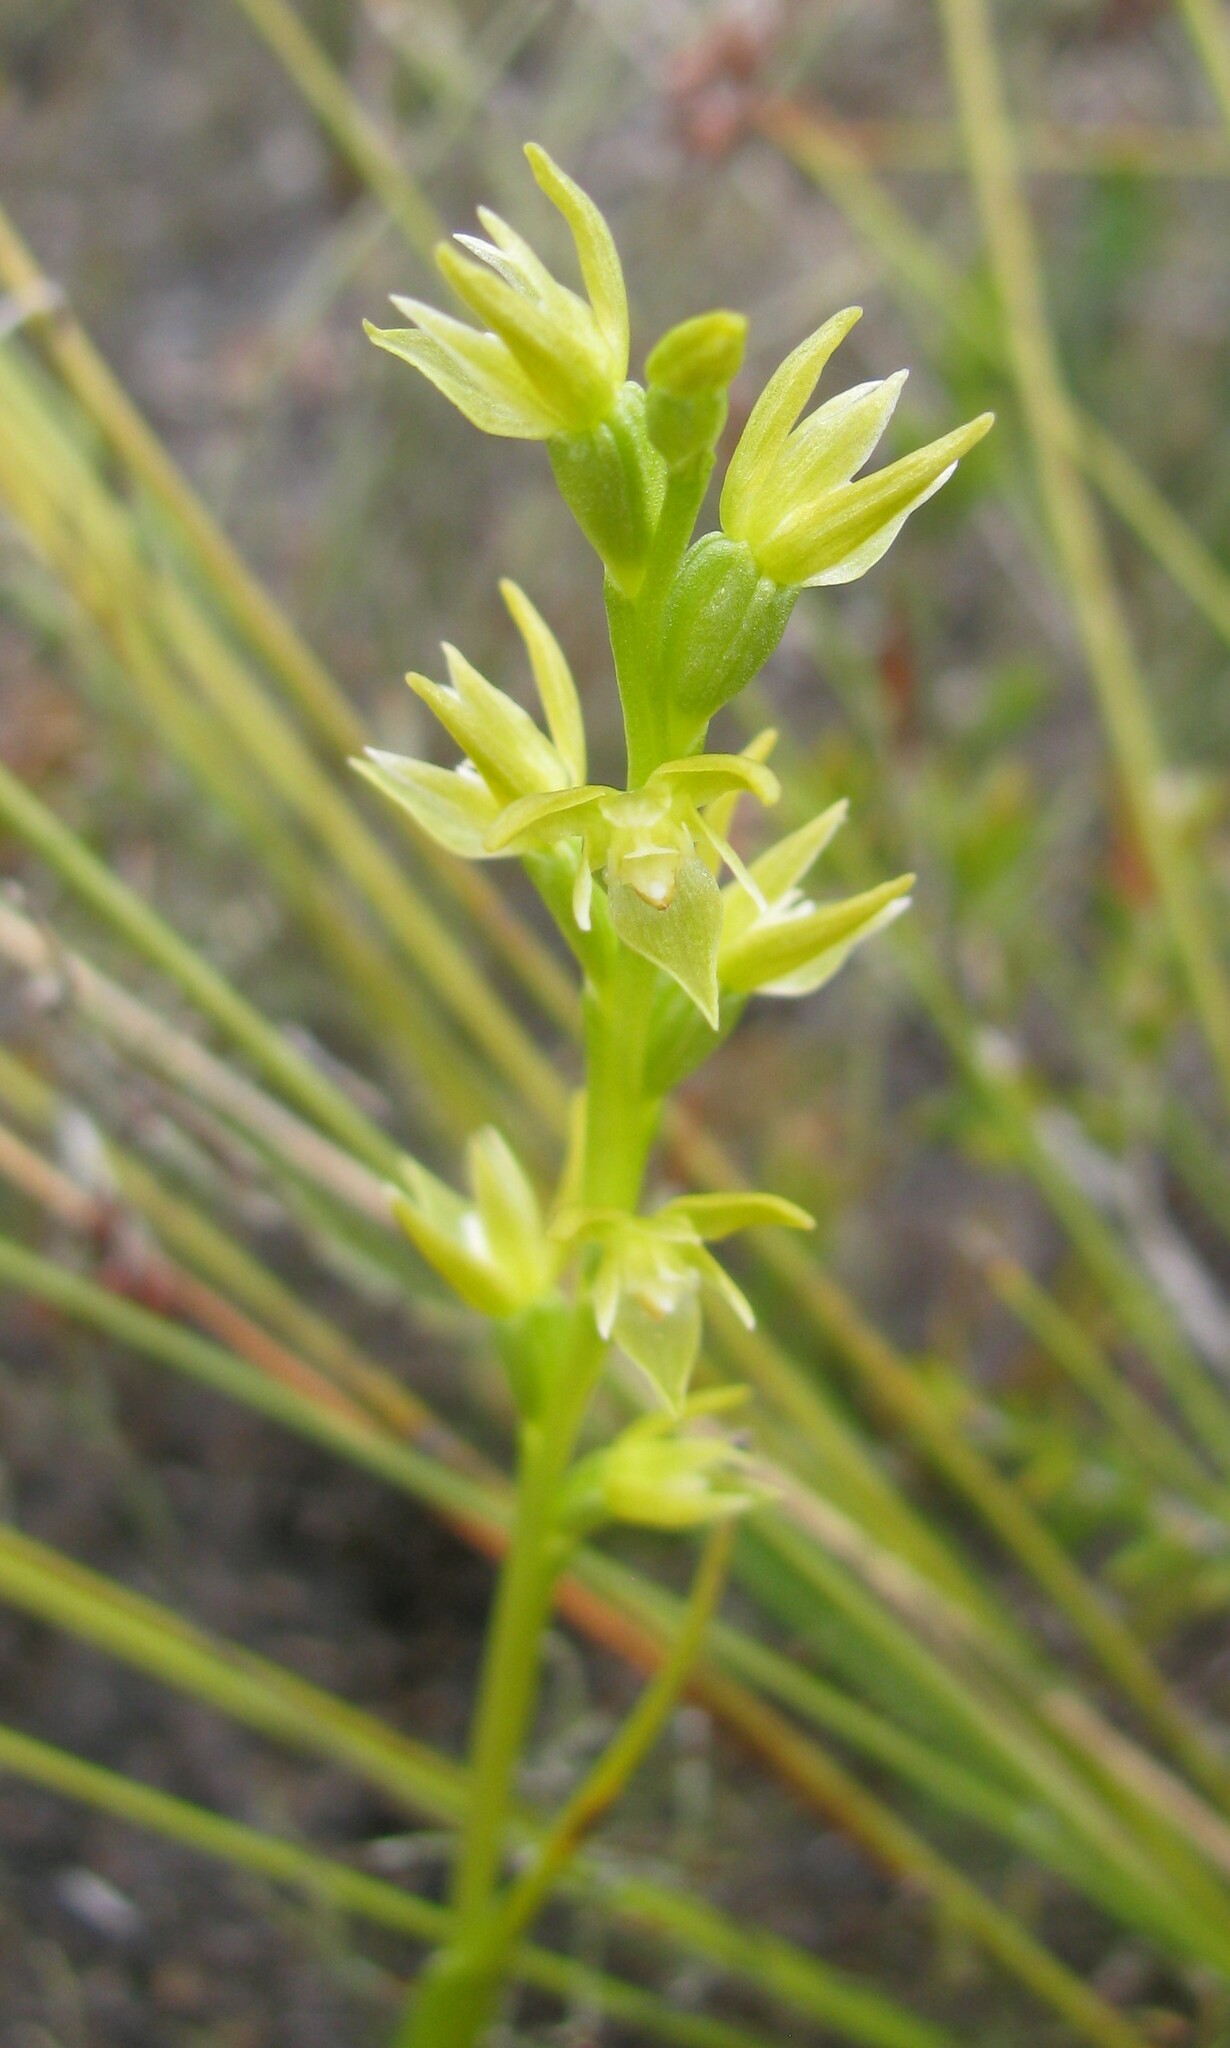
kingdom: Plantae
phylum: Tracheophyta
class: Liliopsida
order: Asparagales
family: Orchidaceae
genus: Prasophyllum
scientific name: Prasophyllum abblittiorum
